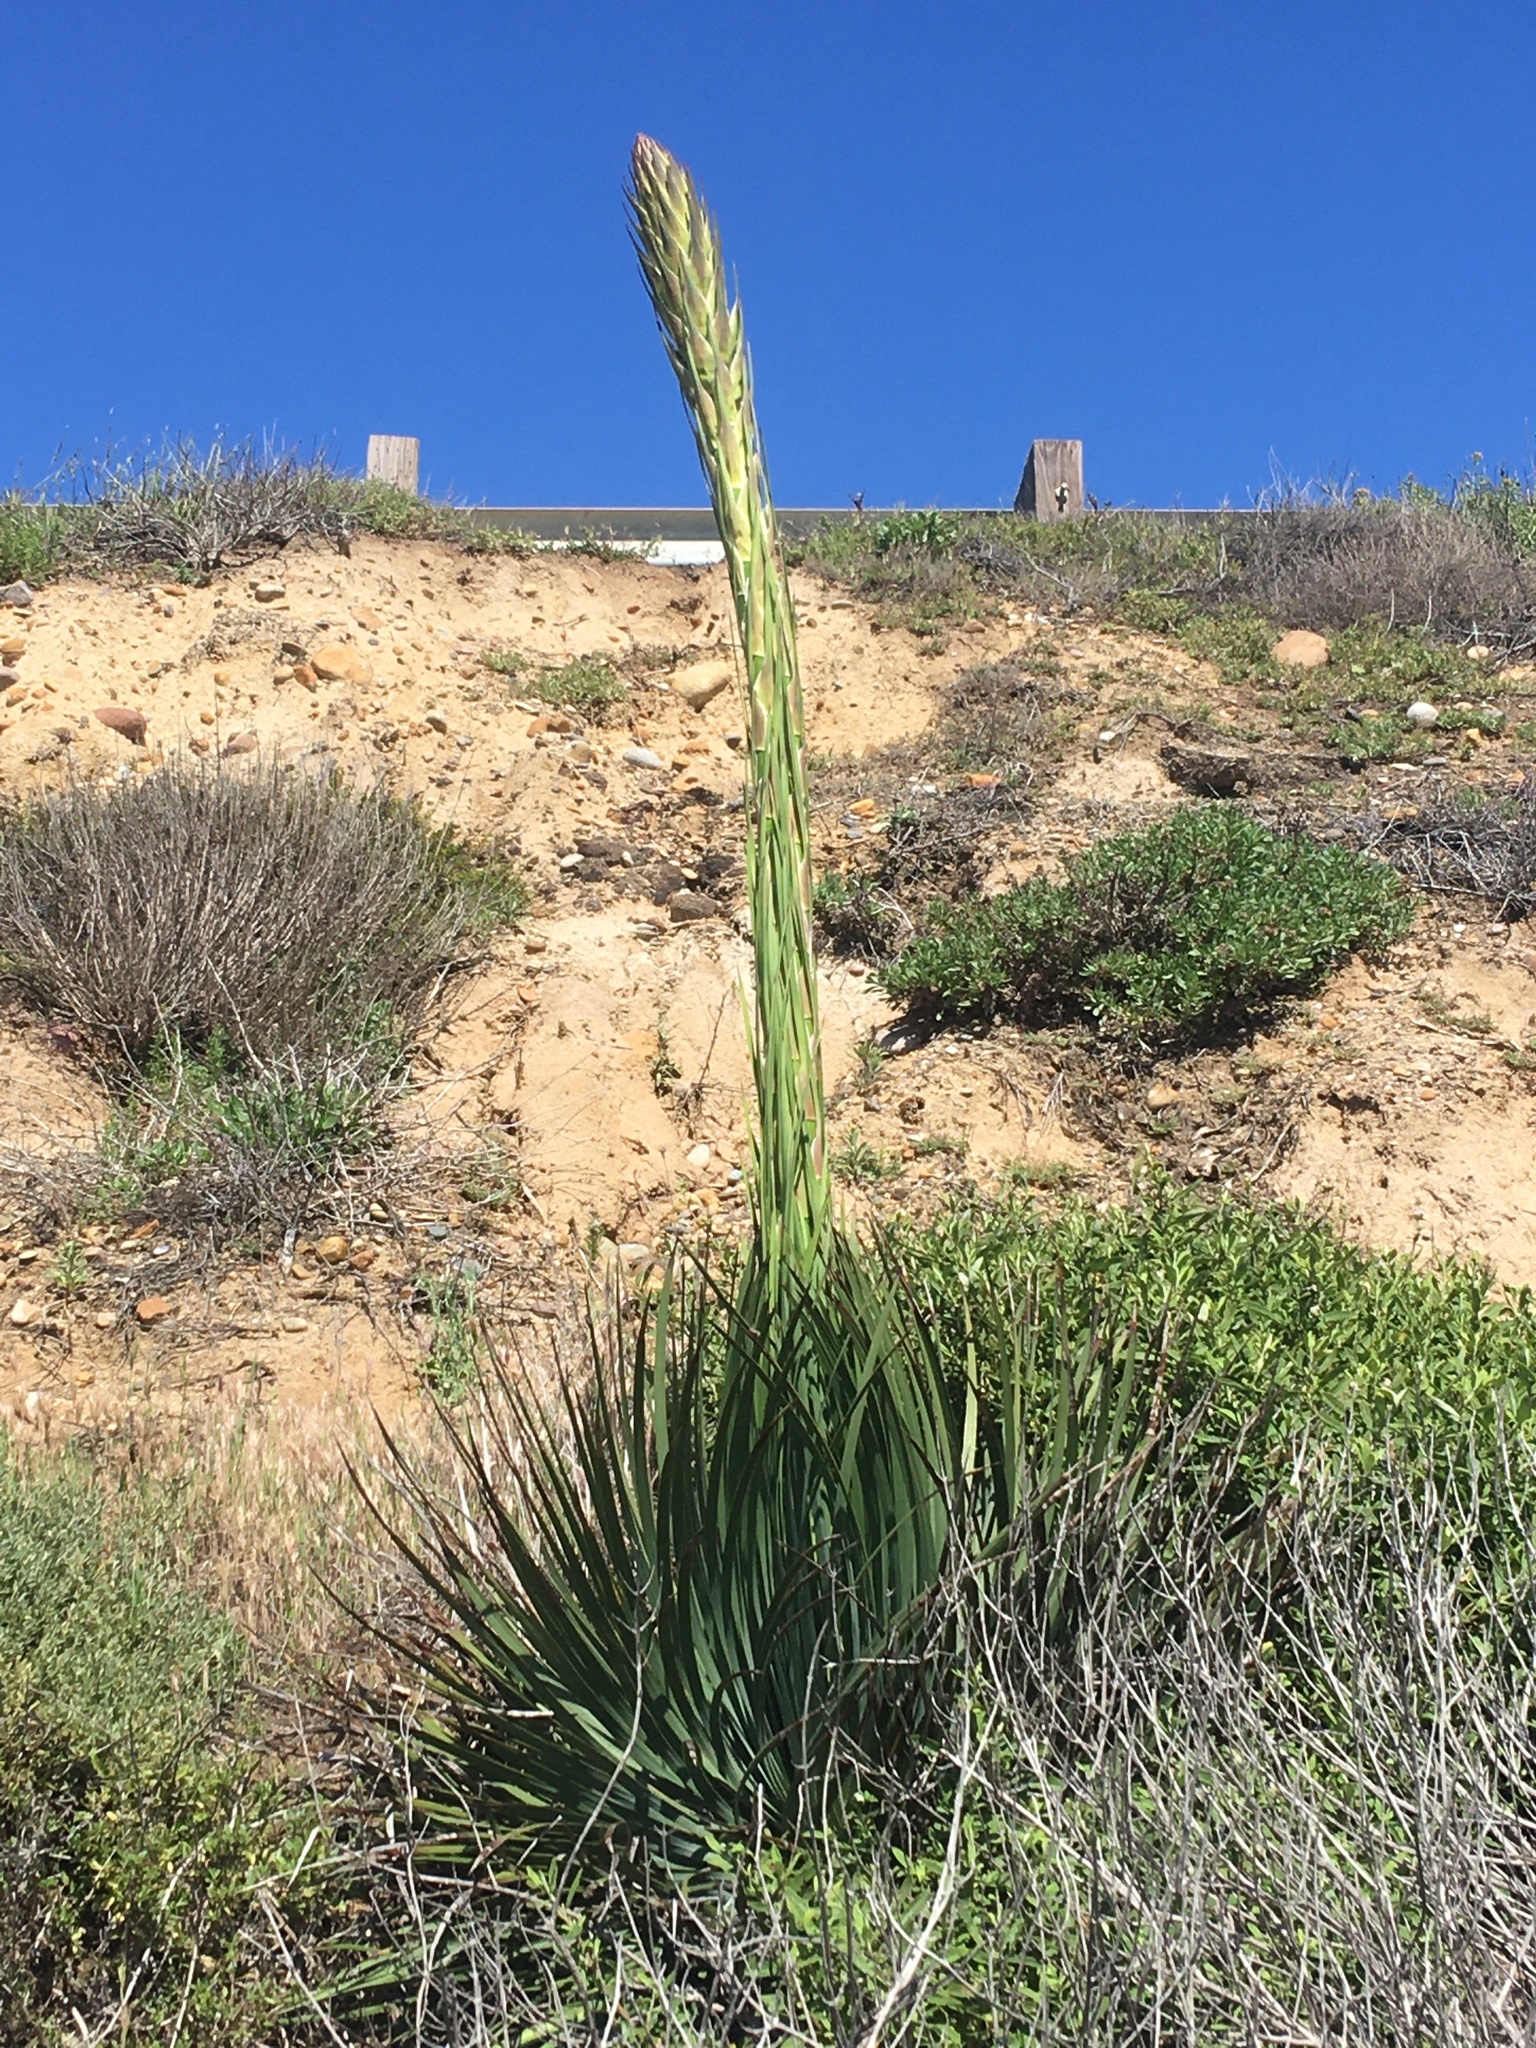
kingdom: Plantae
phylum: Tracheophyta
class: Liliopsida
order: Asparagales
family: Asparagaceae
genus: Hesperoyucca
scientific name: Hesperoyucca whipplei
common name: Our lord's-candle
